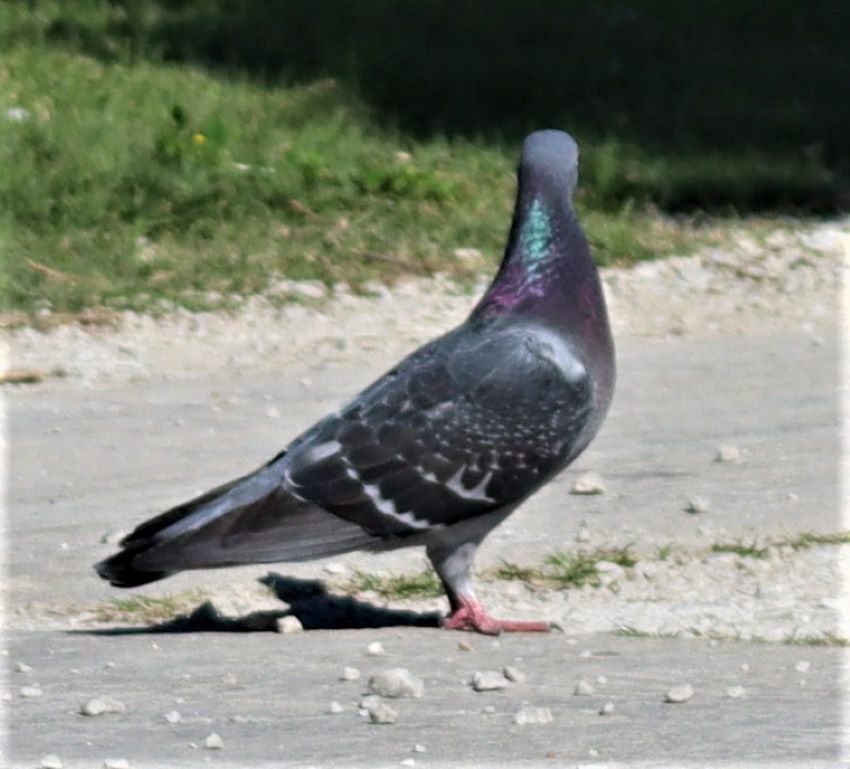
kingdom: Animalia
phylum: Chordata
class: Aves
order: Columbiformes
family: Columbidae
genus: Columba
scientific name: Columba livia
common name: Rock pigeon
